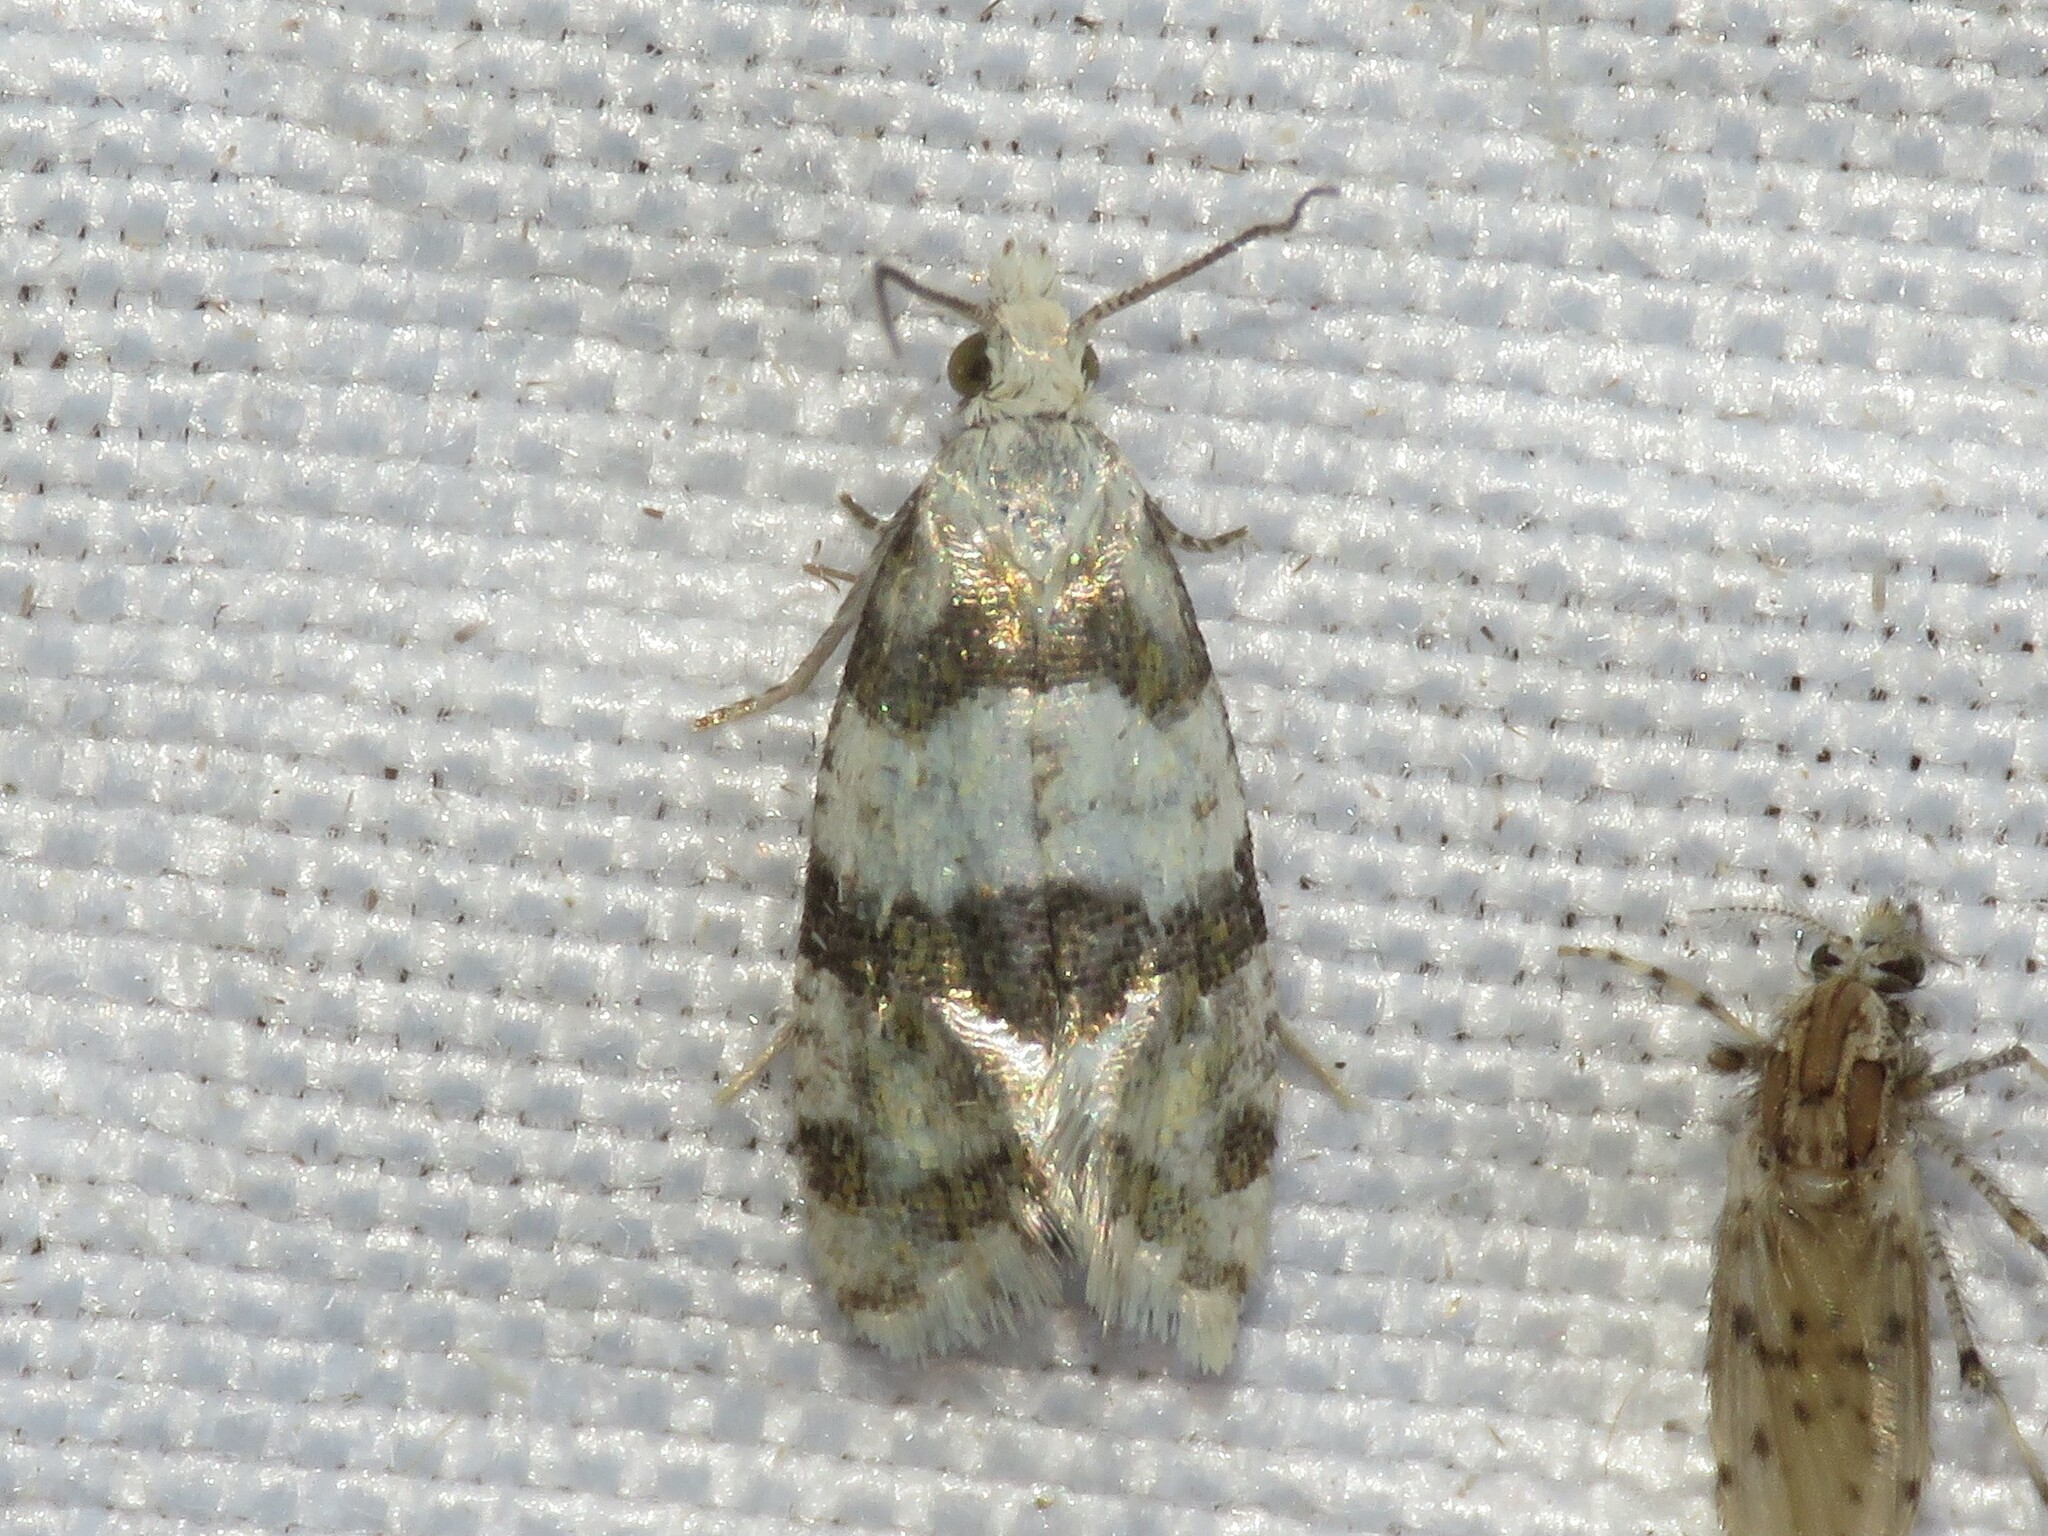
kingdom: Animalia
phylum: Arthropoda
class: Insecta
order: Lepidoptera
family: Tortricidae
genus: Aethes
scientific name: Aethes argentilimitana
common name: Silver-bordered aethes
